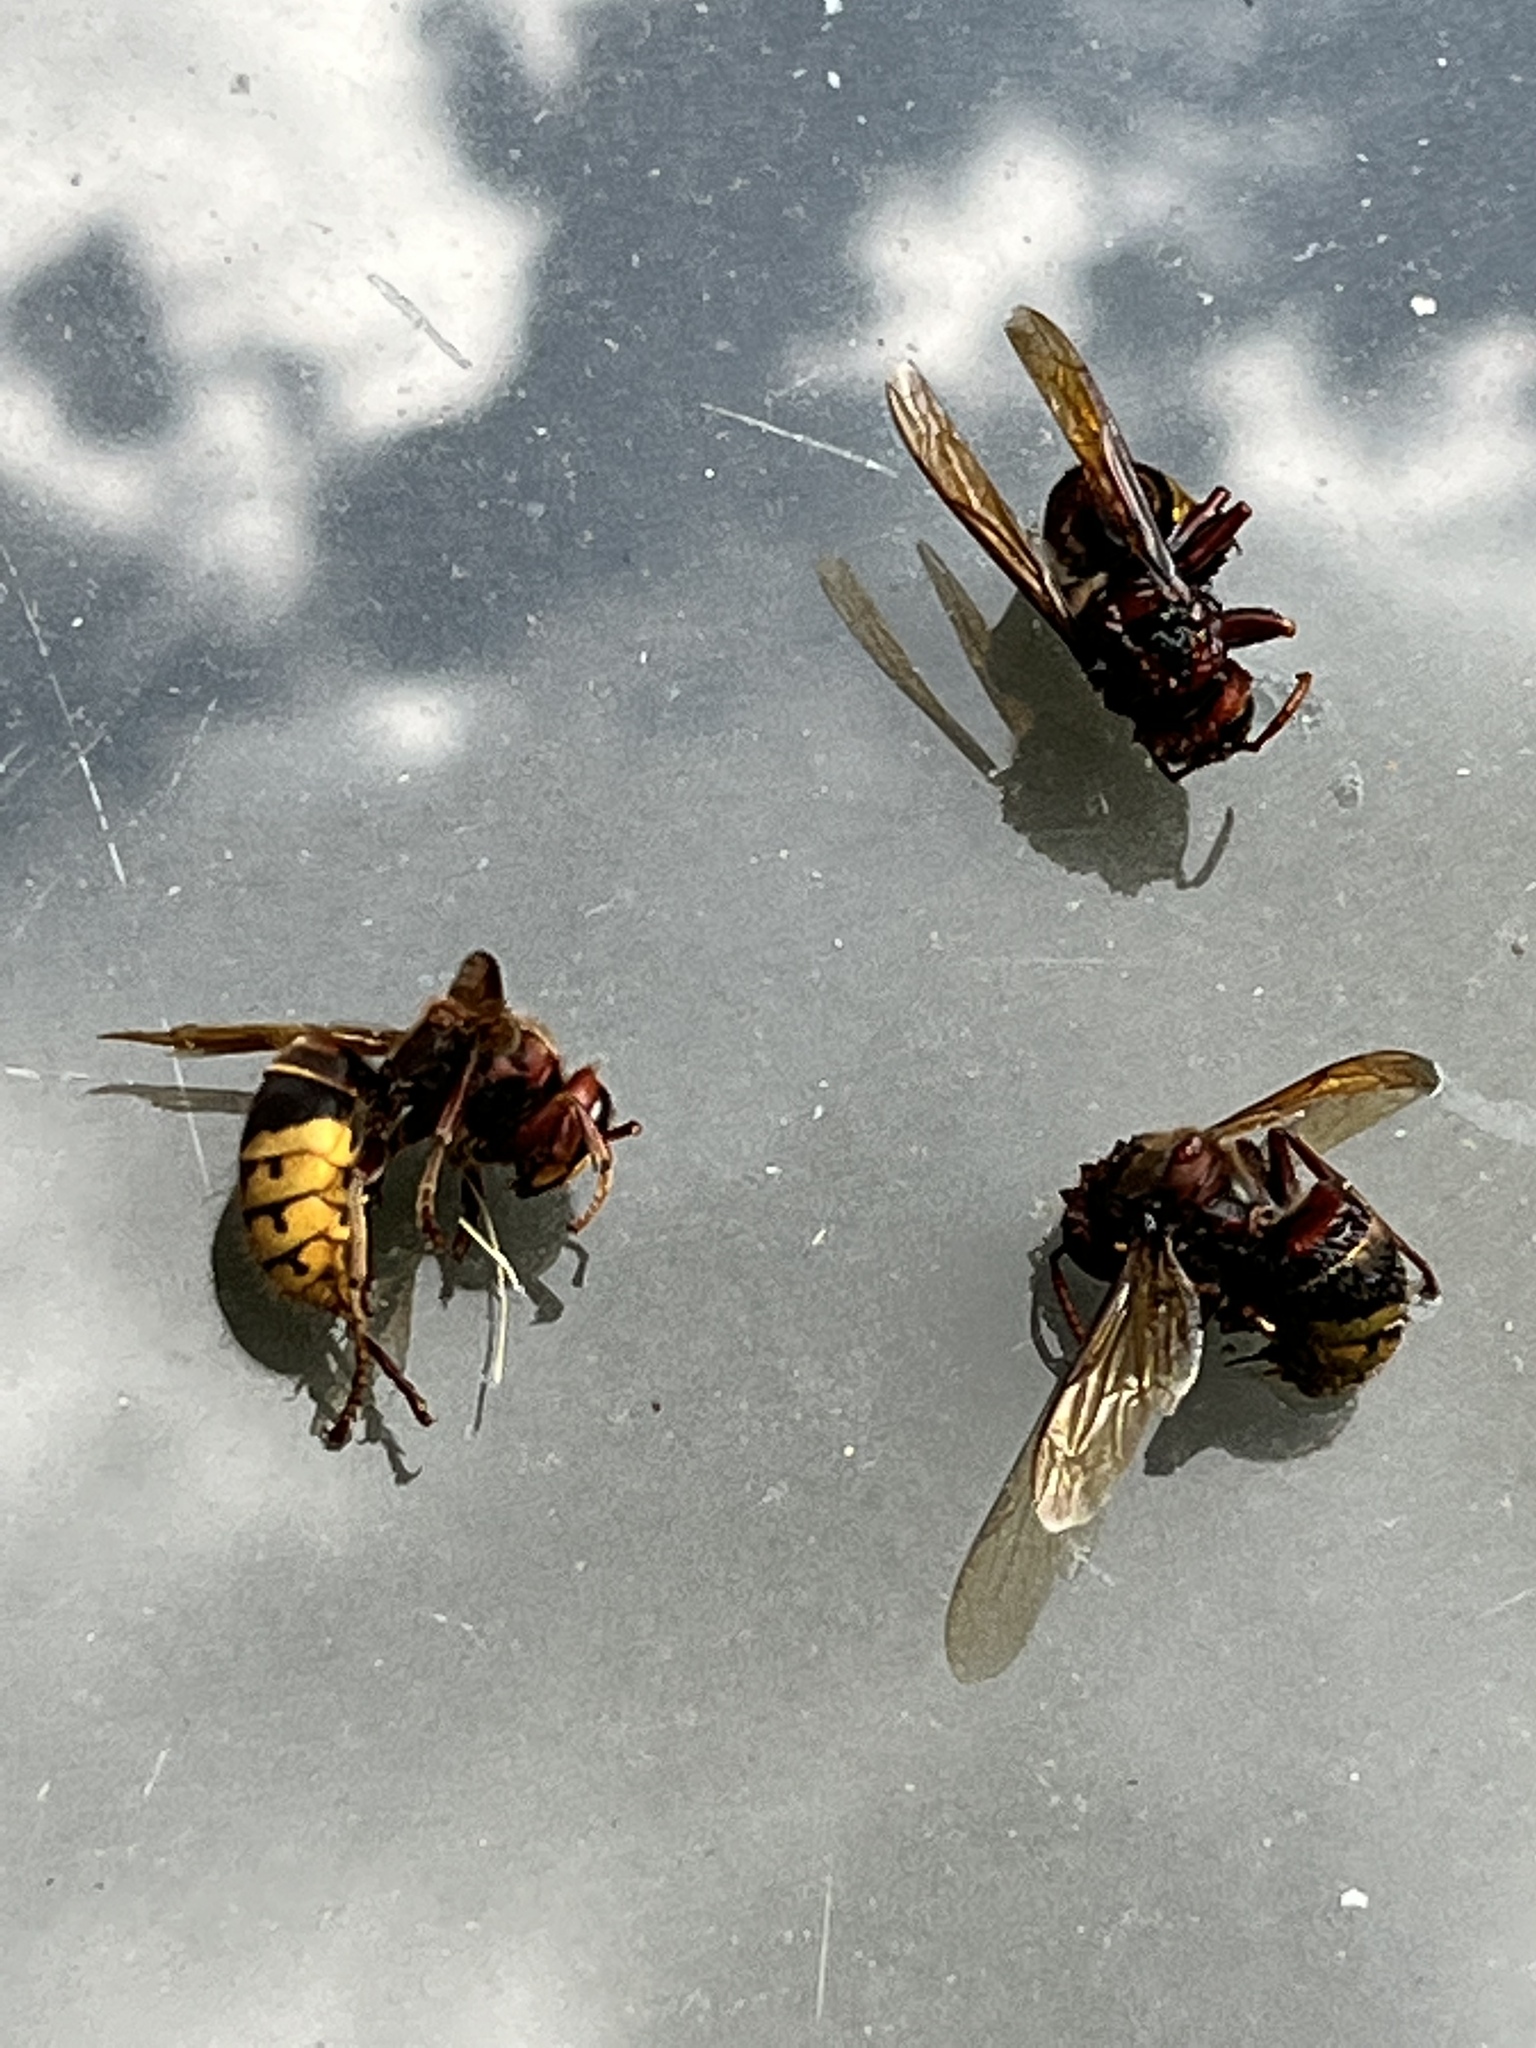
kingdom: Animalia
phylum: Arthropoda
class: Insecta
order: Hymenoptera
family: Vespidae
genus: Vespa
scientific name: Vespa crabro
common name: Hornet
